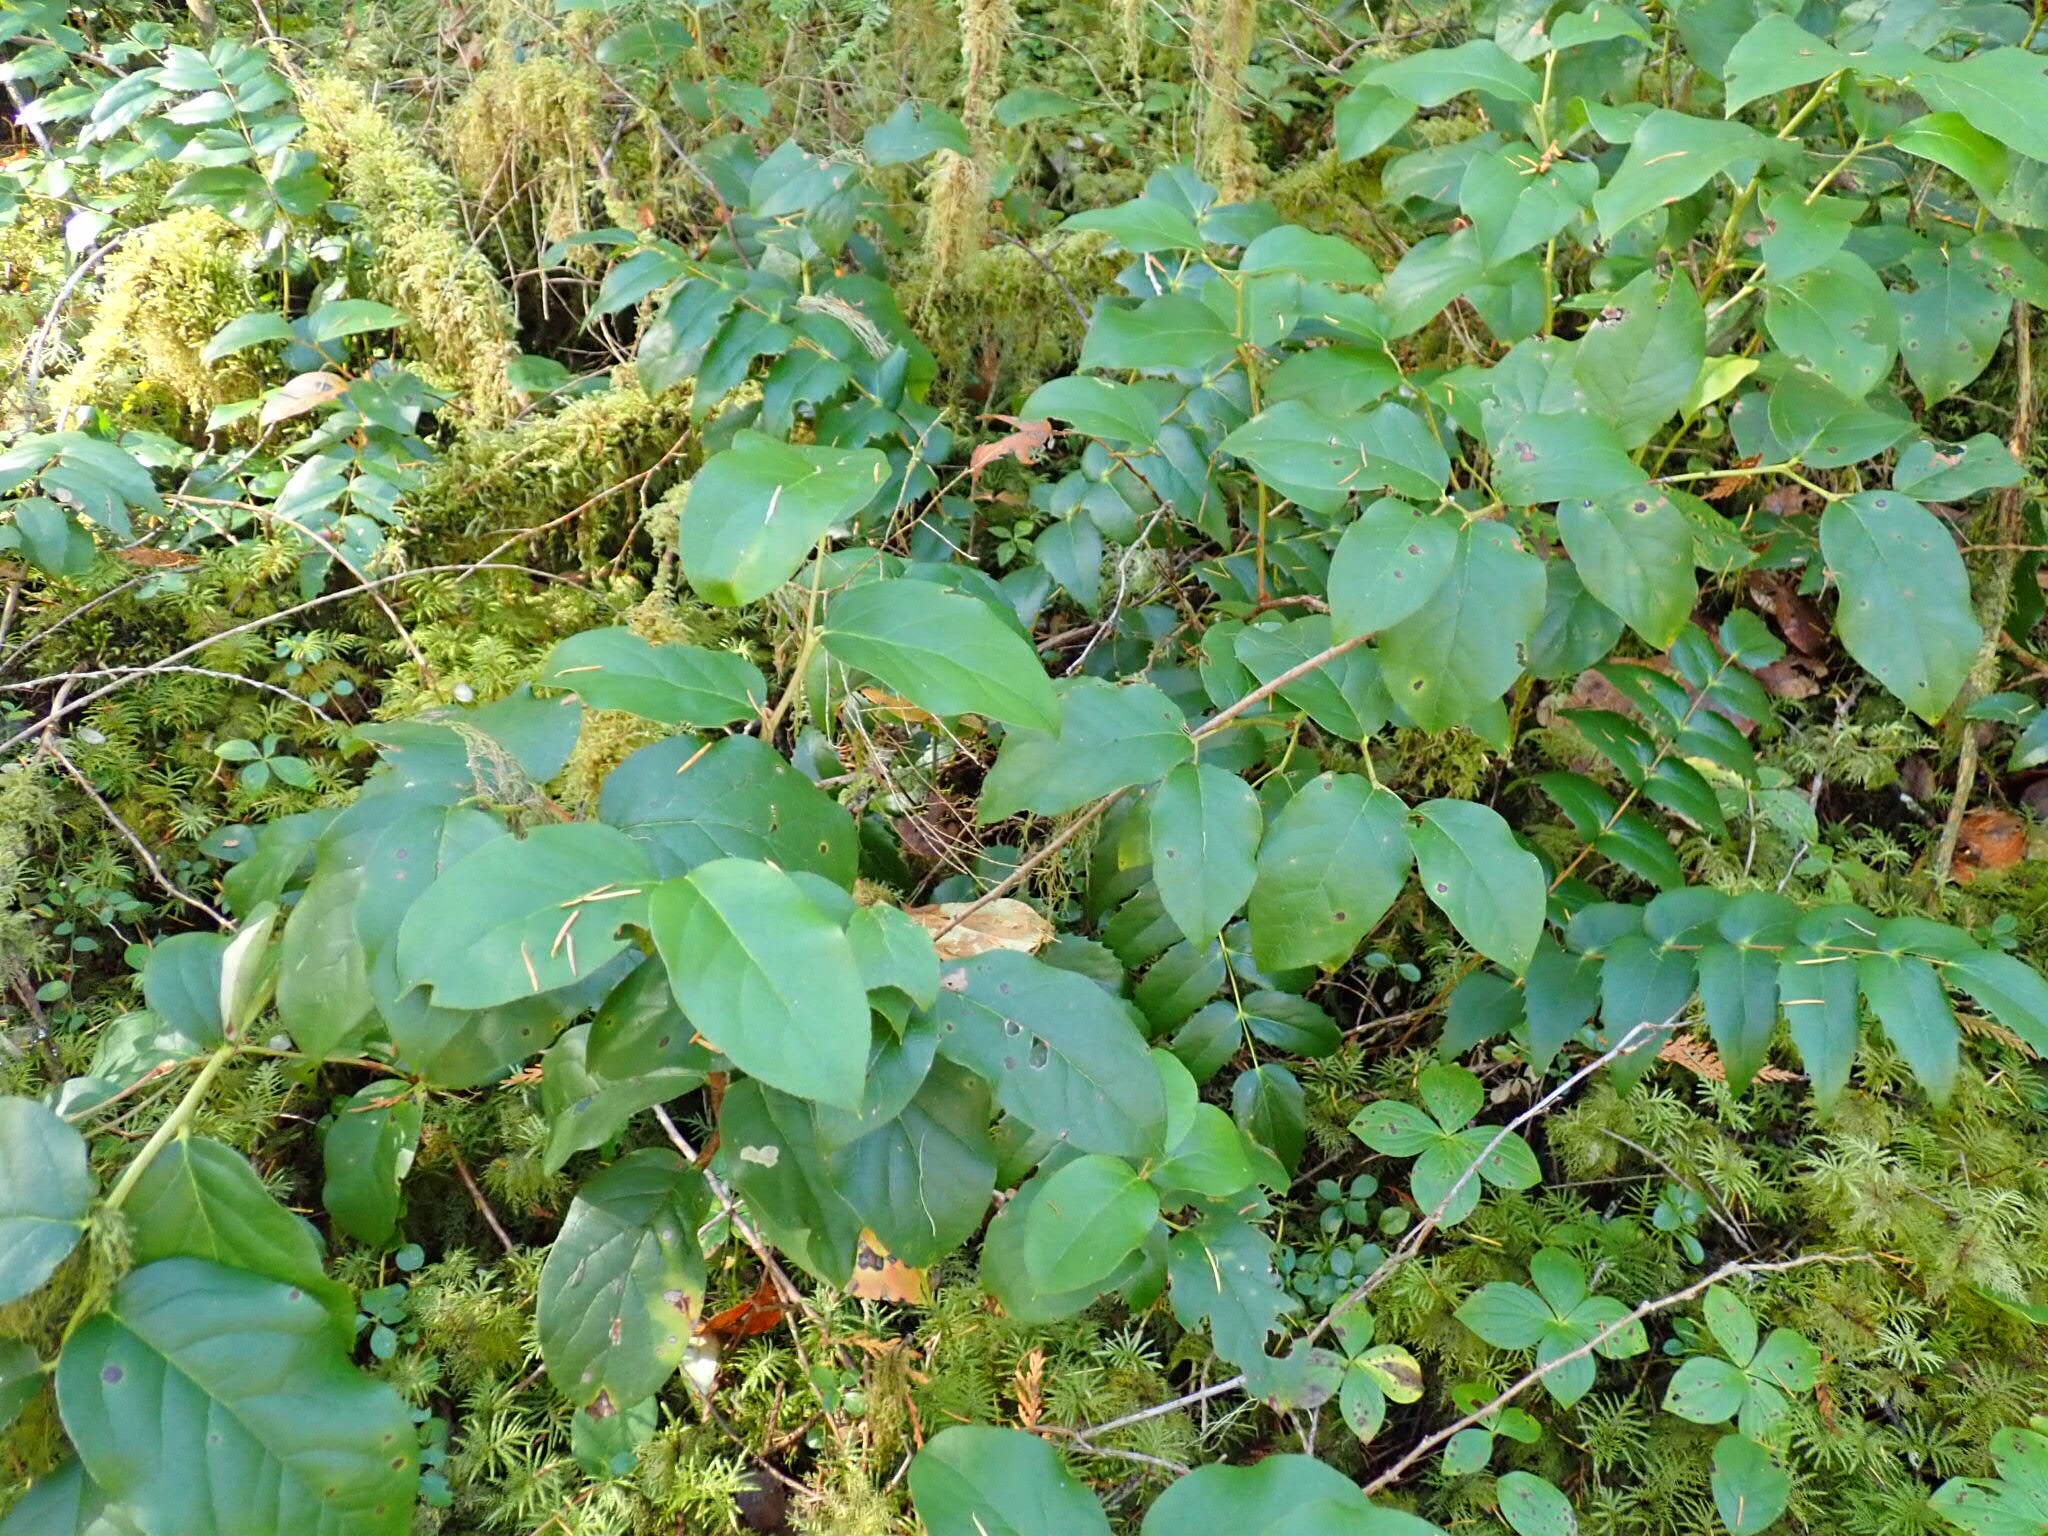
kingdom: Plantae
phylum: Tracheophyta
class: Magnoliopsida
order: Ericales
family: Ericaceae
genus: Gaultheria
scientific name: Gaultheria shallon
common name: Shallon
